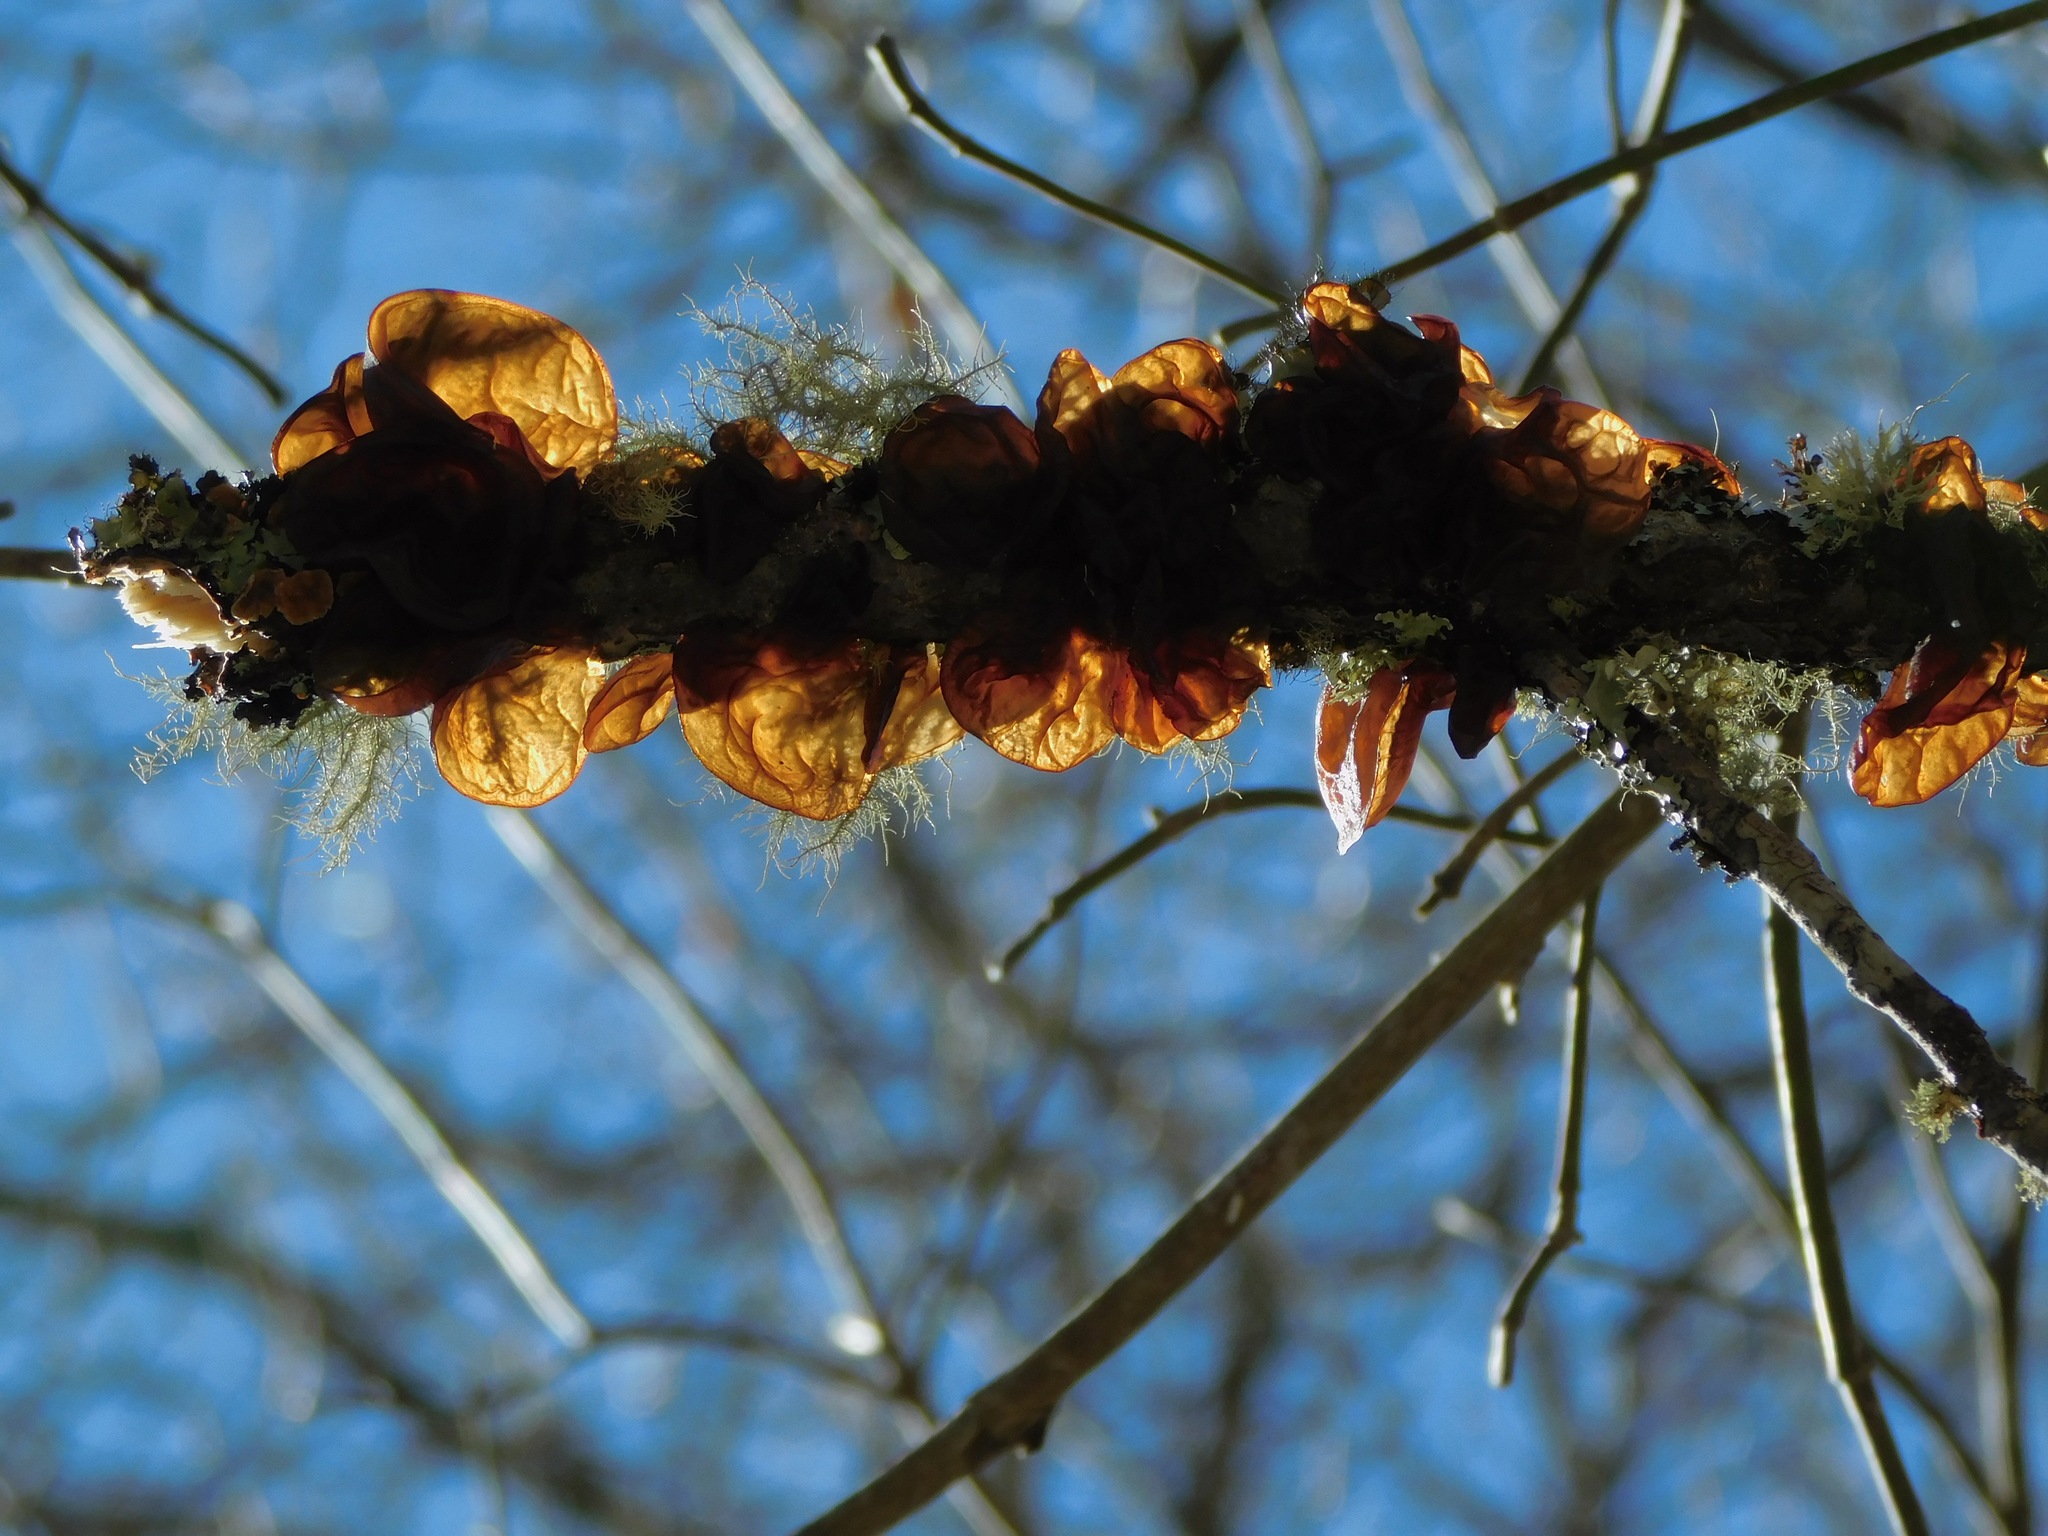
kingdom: Fungi
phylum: Basidiomycota
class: Agaricomycetes
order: Auriculariales
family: Auriculariaceae
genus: Exidia
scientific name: Exidia
